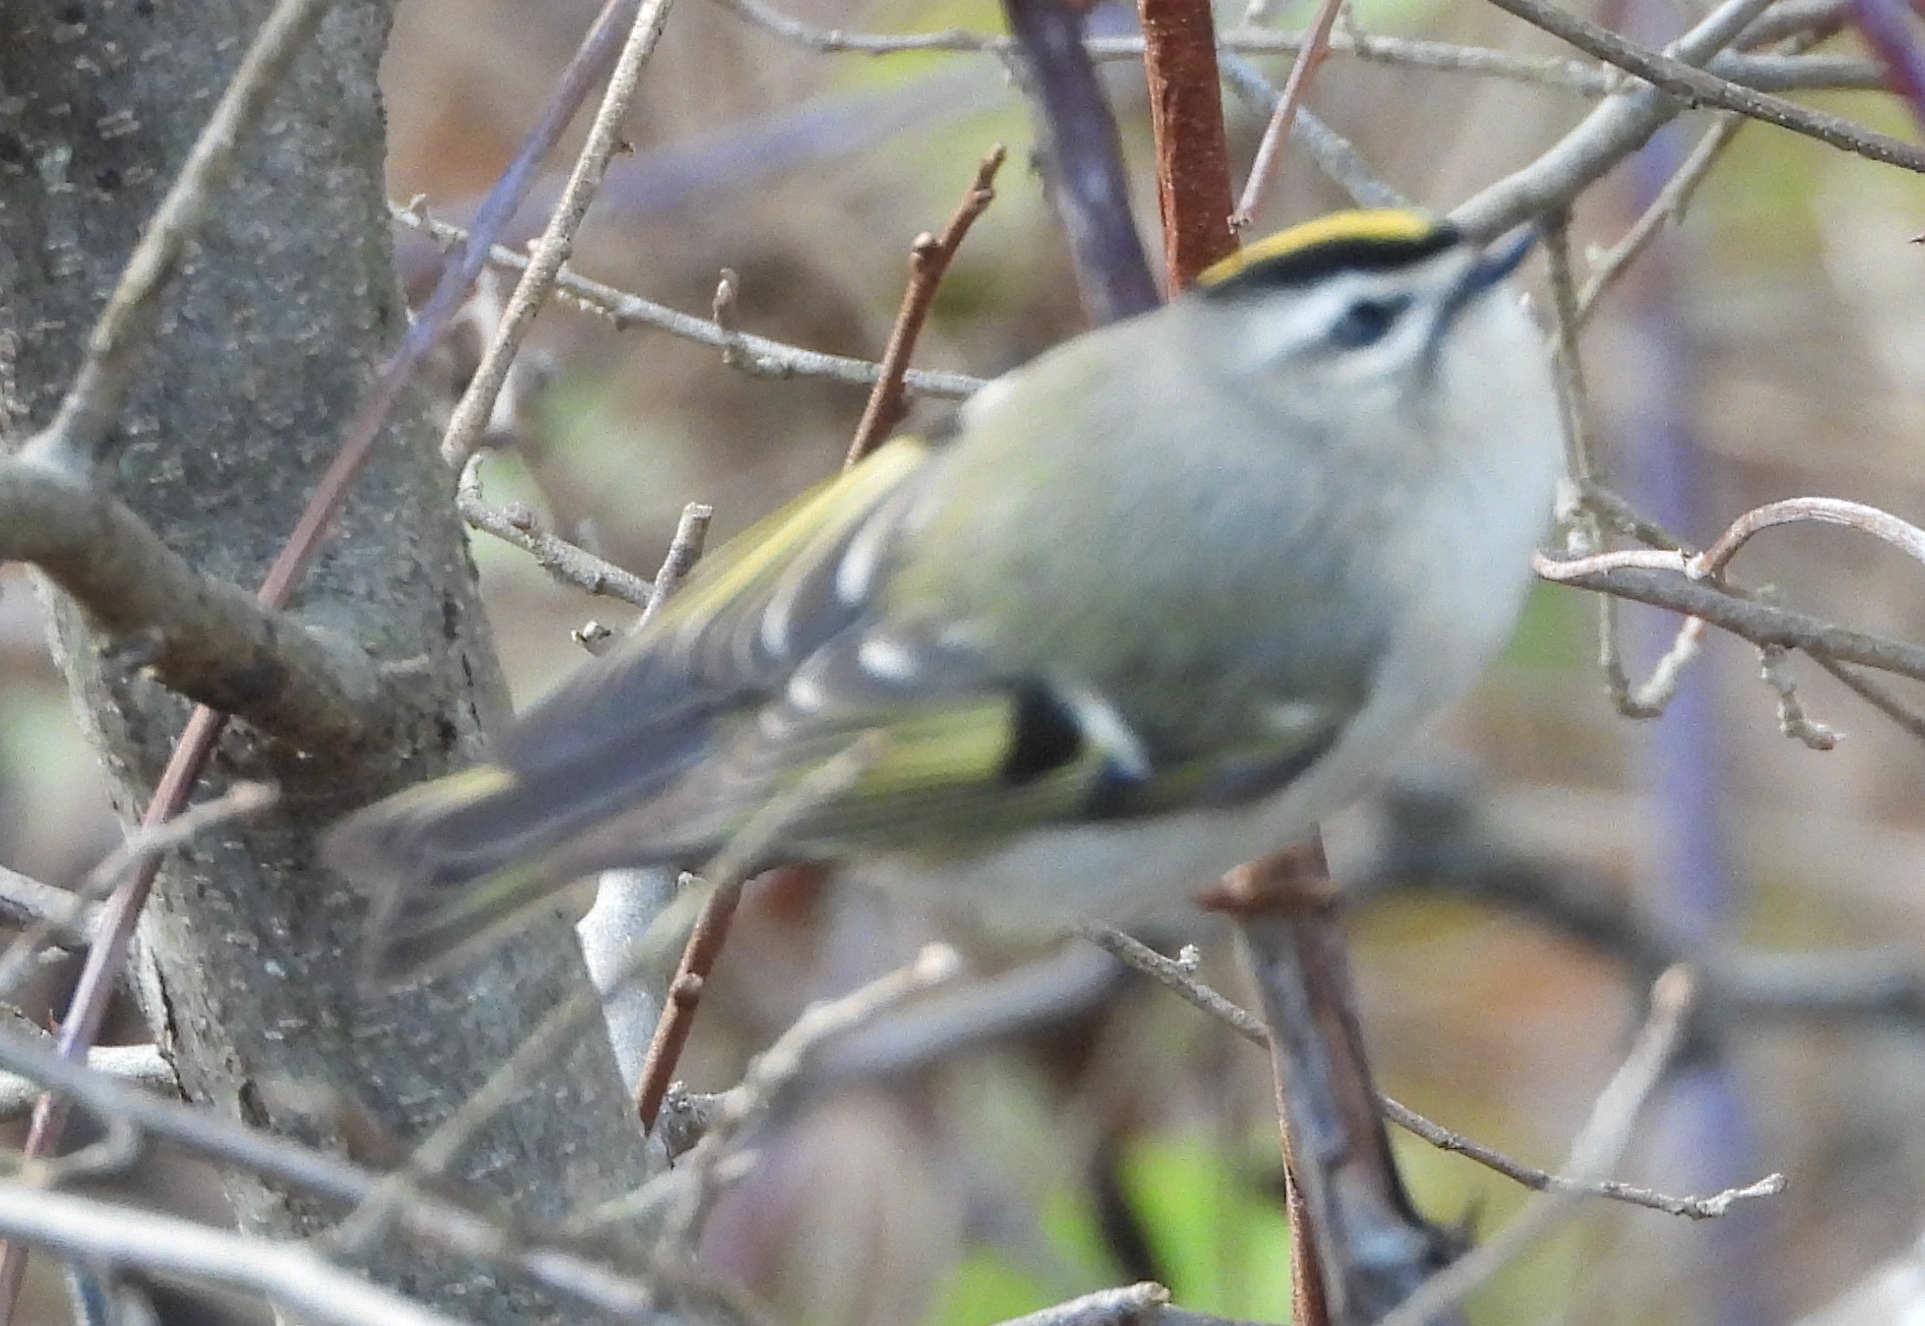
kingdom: Animalia
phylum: Chordata
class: Aves
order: Passeriformes
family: Regulidae
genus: Regulus
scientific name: Regulus satrapa
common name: Golden-crowned kinglet
